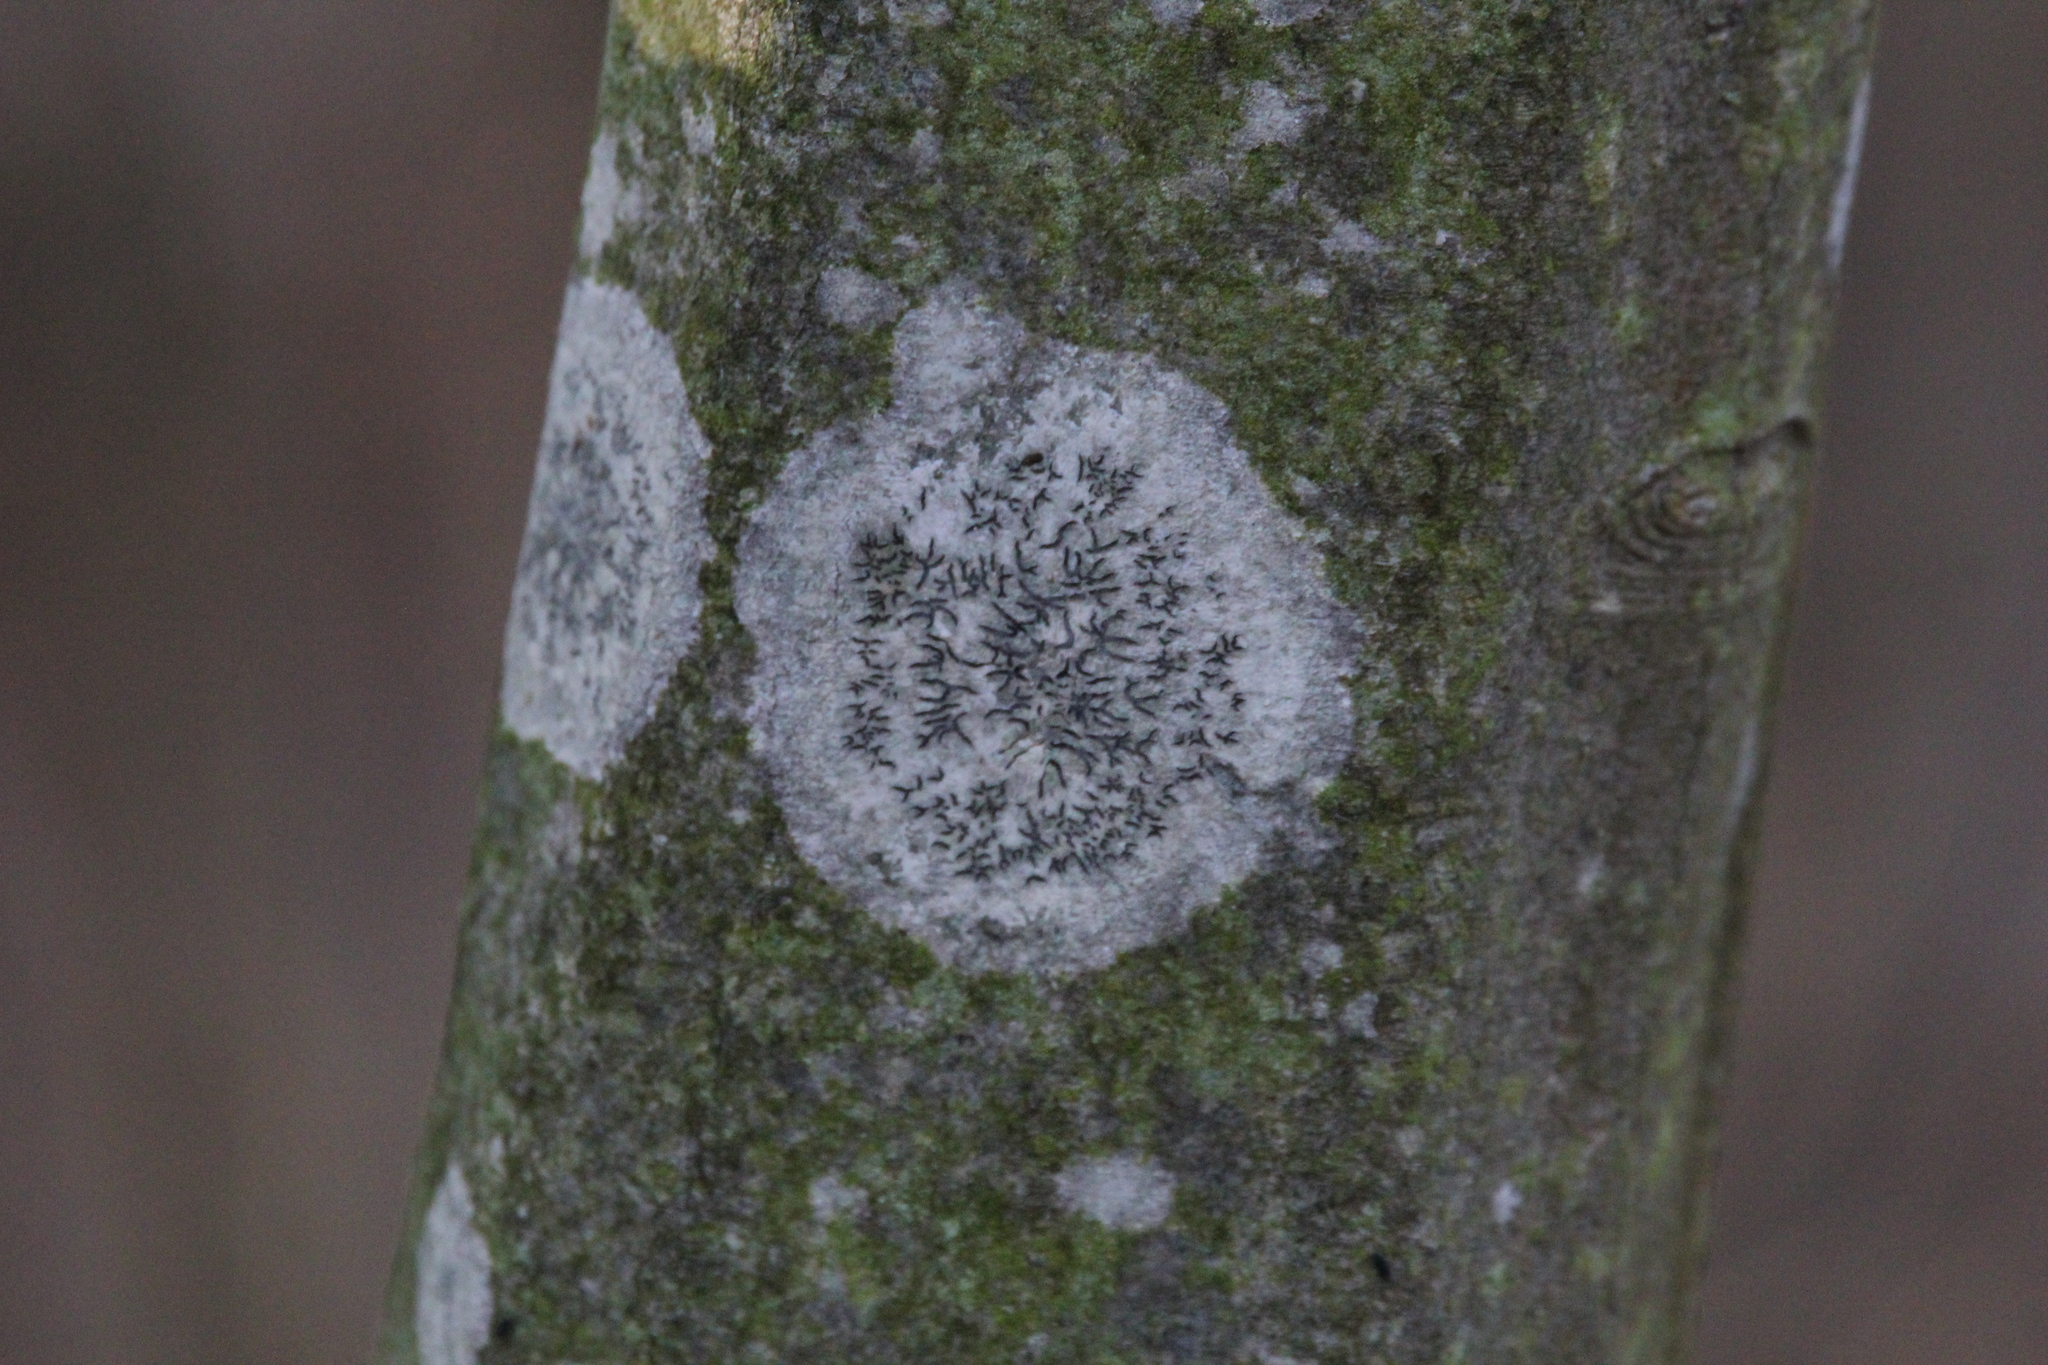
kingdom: Fungi
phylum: Ascomycota
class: Lecanoromycetes
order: Ostropales
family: Graphidaceae
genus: Graphis
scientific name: Graphis scripta
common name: Script lichen
